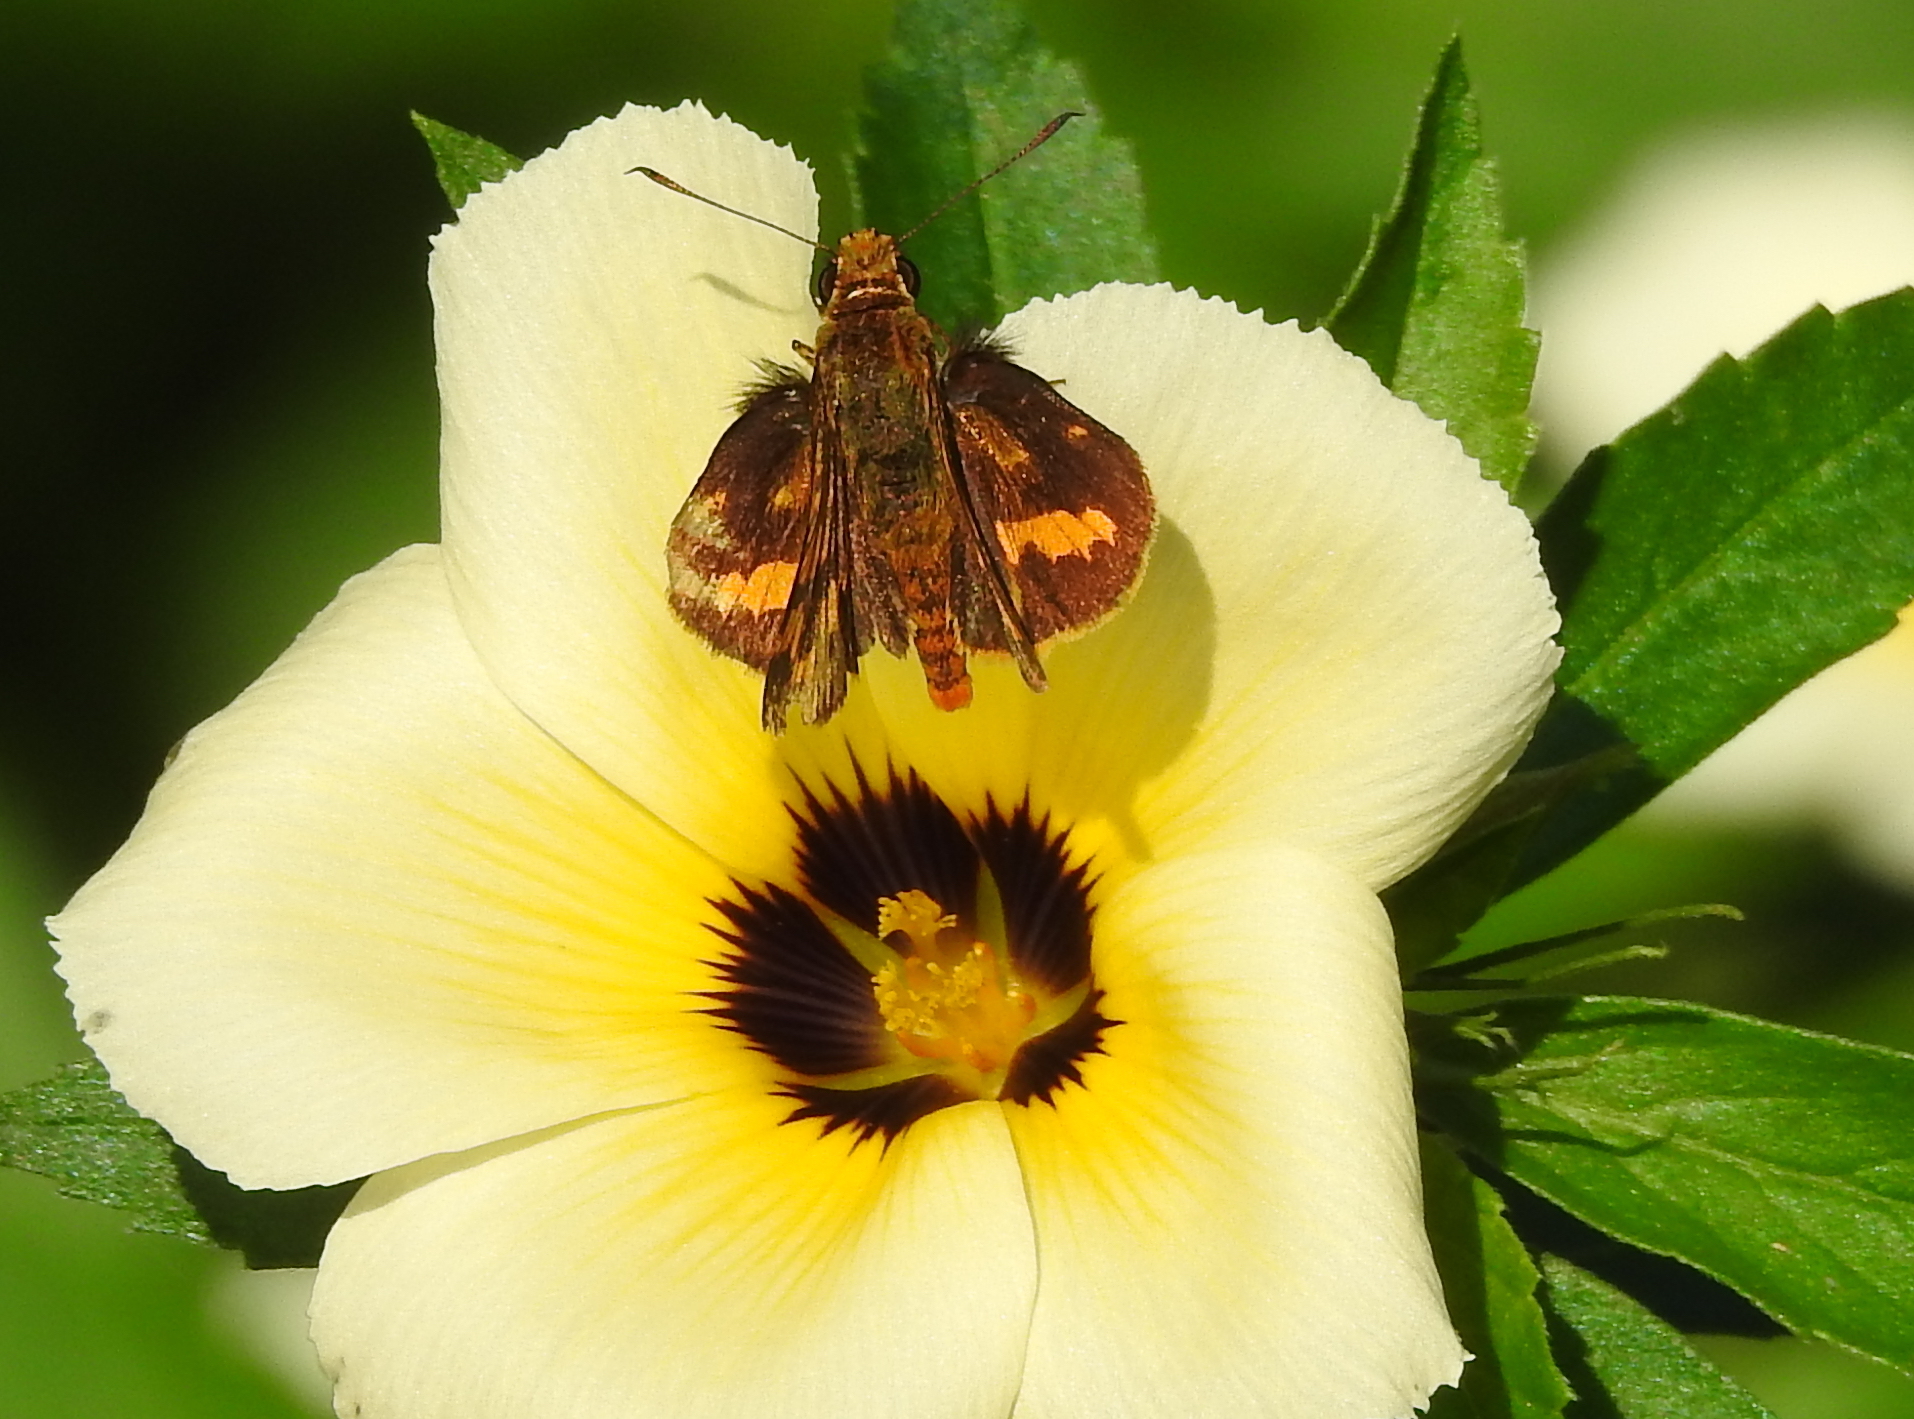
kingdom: Animalia
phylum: Arthropoda
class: Insecta
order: Lepidoptera
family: Hesperiidae
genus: Potanthus
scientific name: Potanthus omaha
